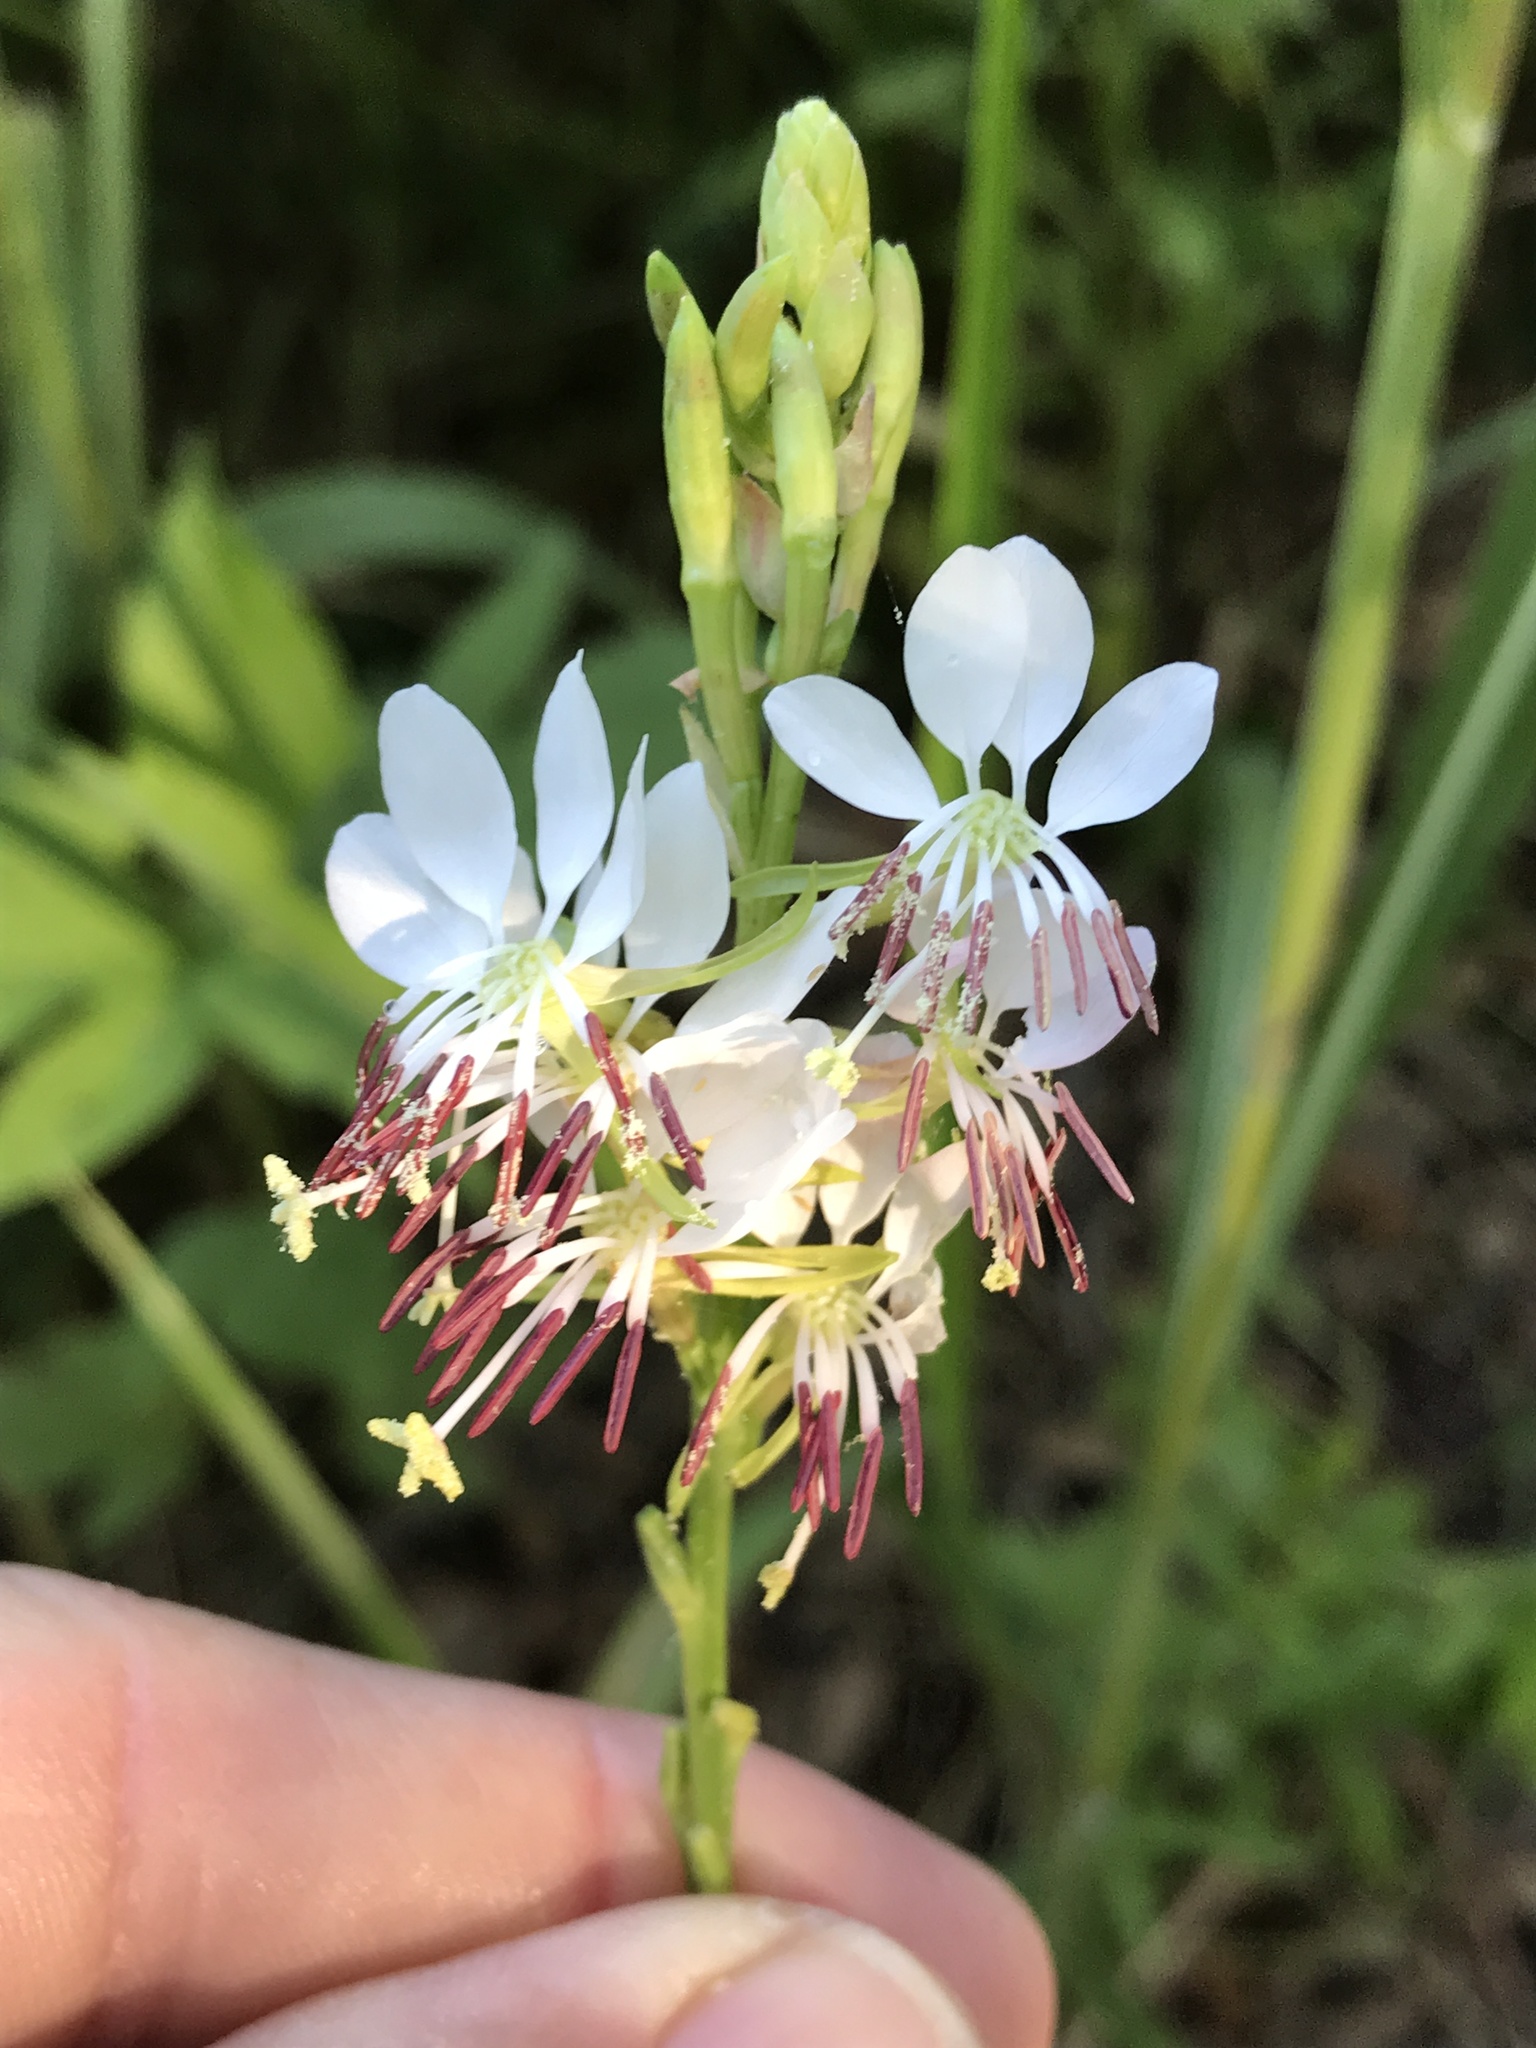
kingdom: Plantae
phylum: Tracheophyta
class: Magnoliopsida
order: Myrtales
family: Onagraceae
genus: Oenothera
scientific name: Oenothera suffulta
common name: Kisses
